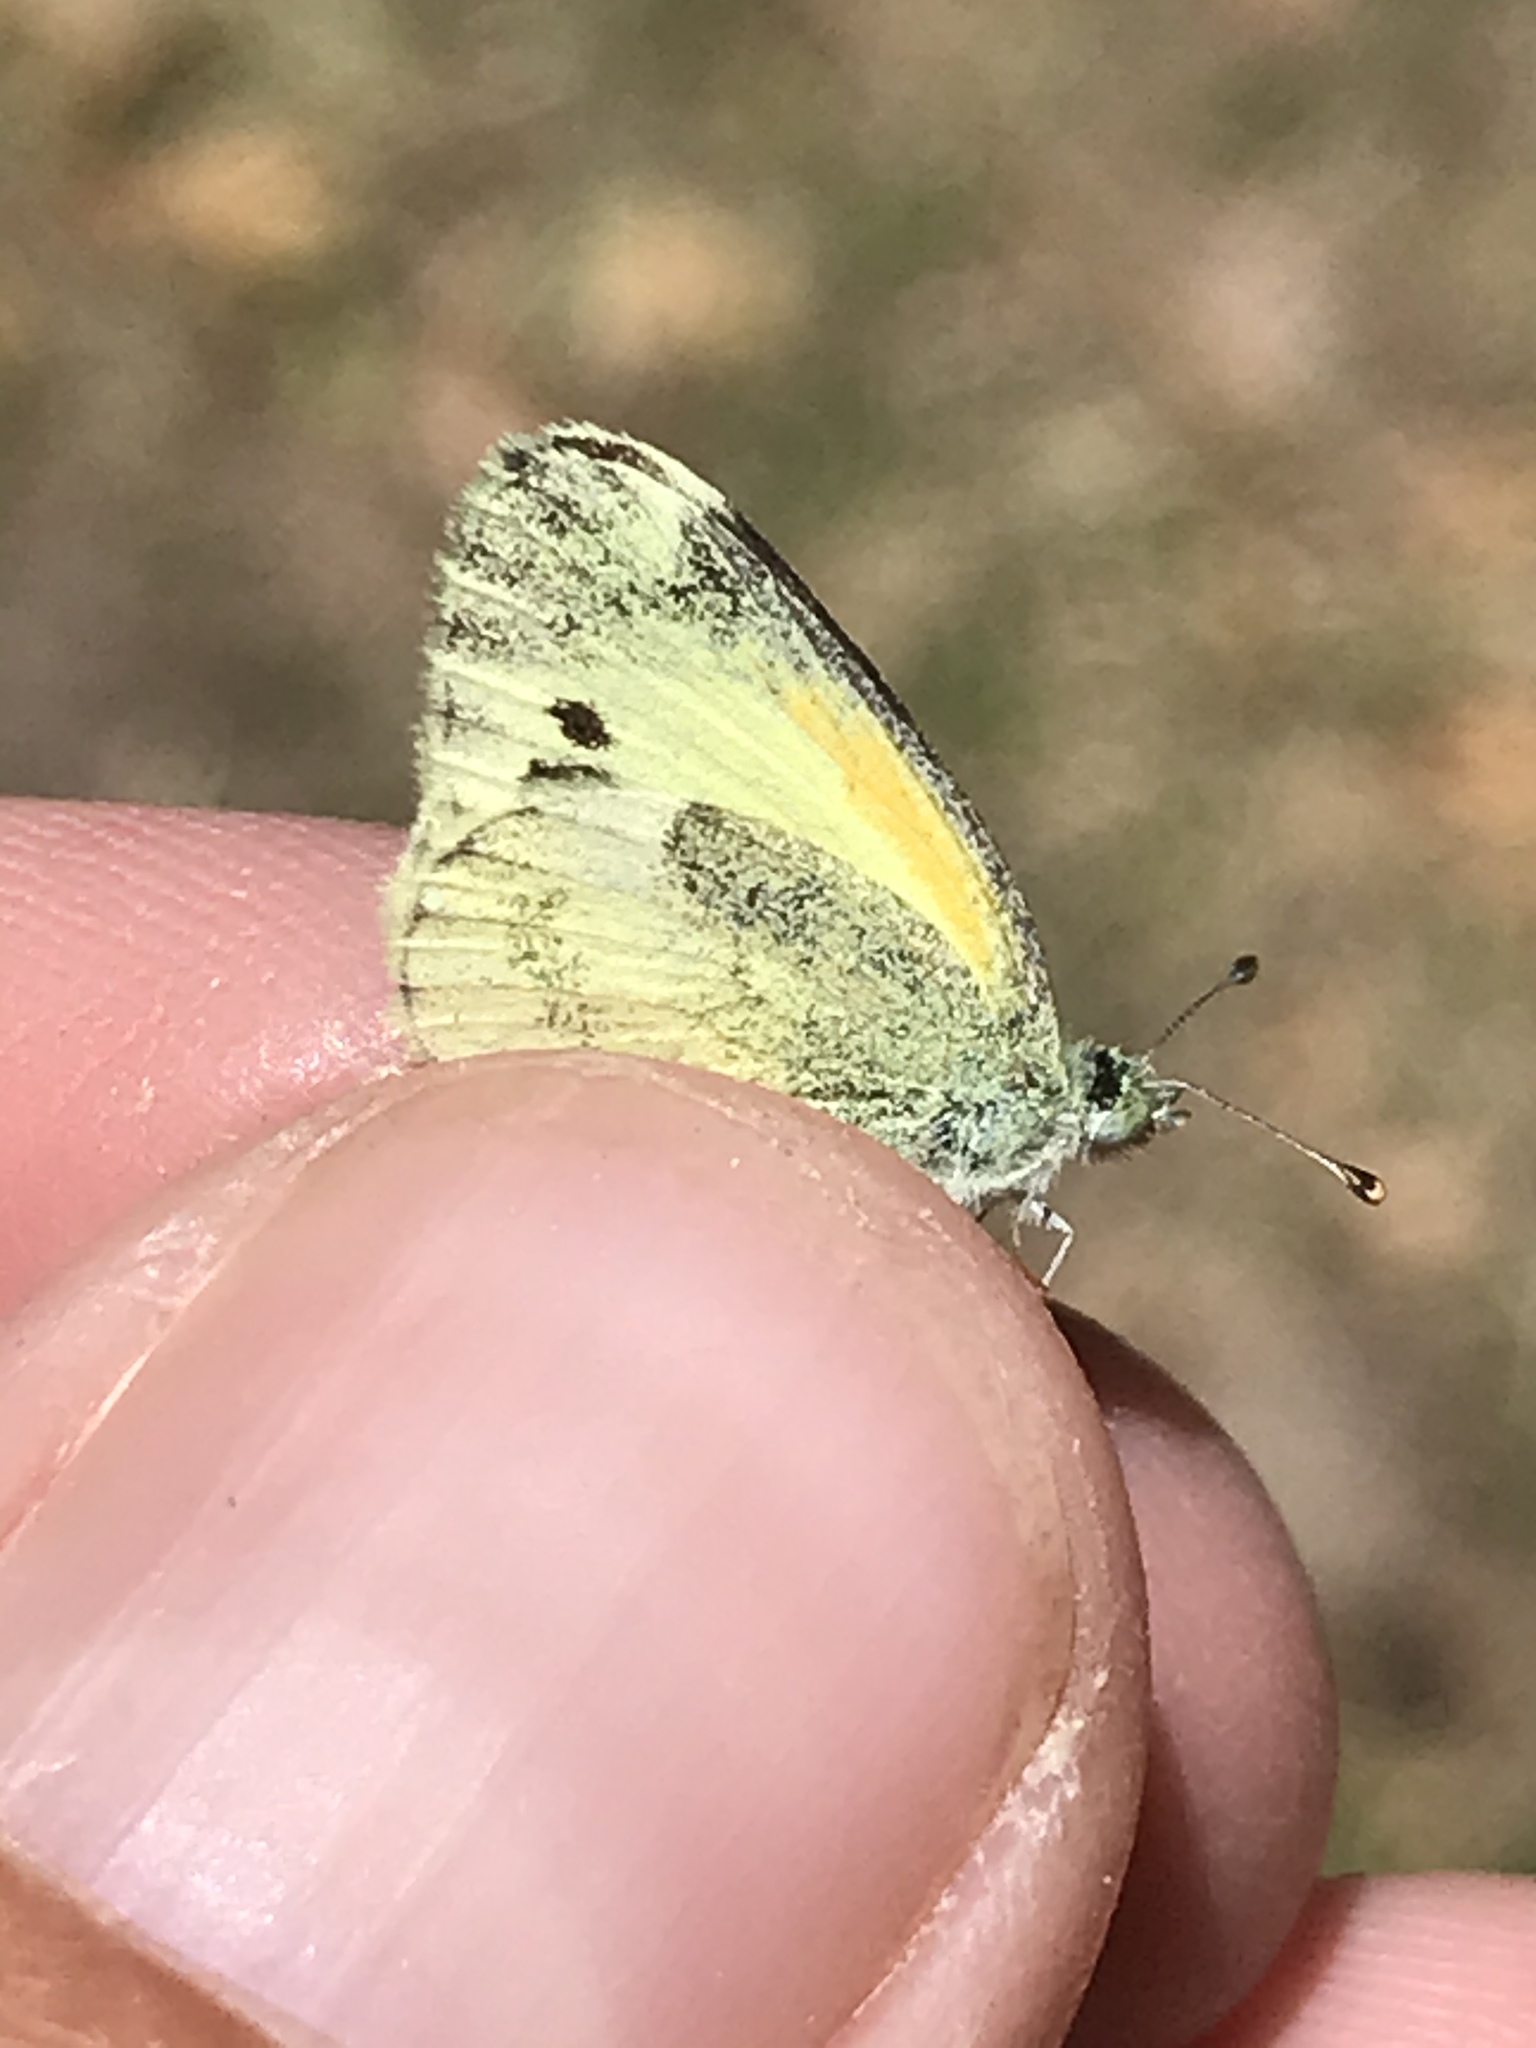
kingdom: Animalia
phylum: Arthropoda
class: Insecta
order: Lepidoptera
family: Pieridae
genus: Nathalis
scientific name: Nathalis iole
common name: Dainty sulphur
